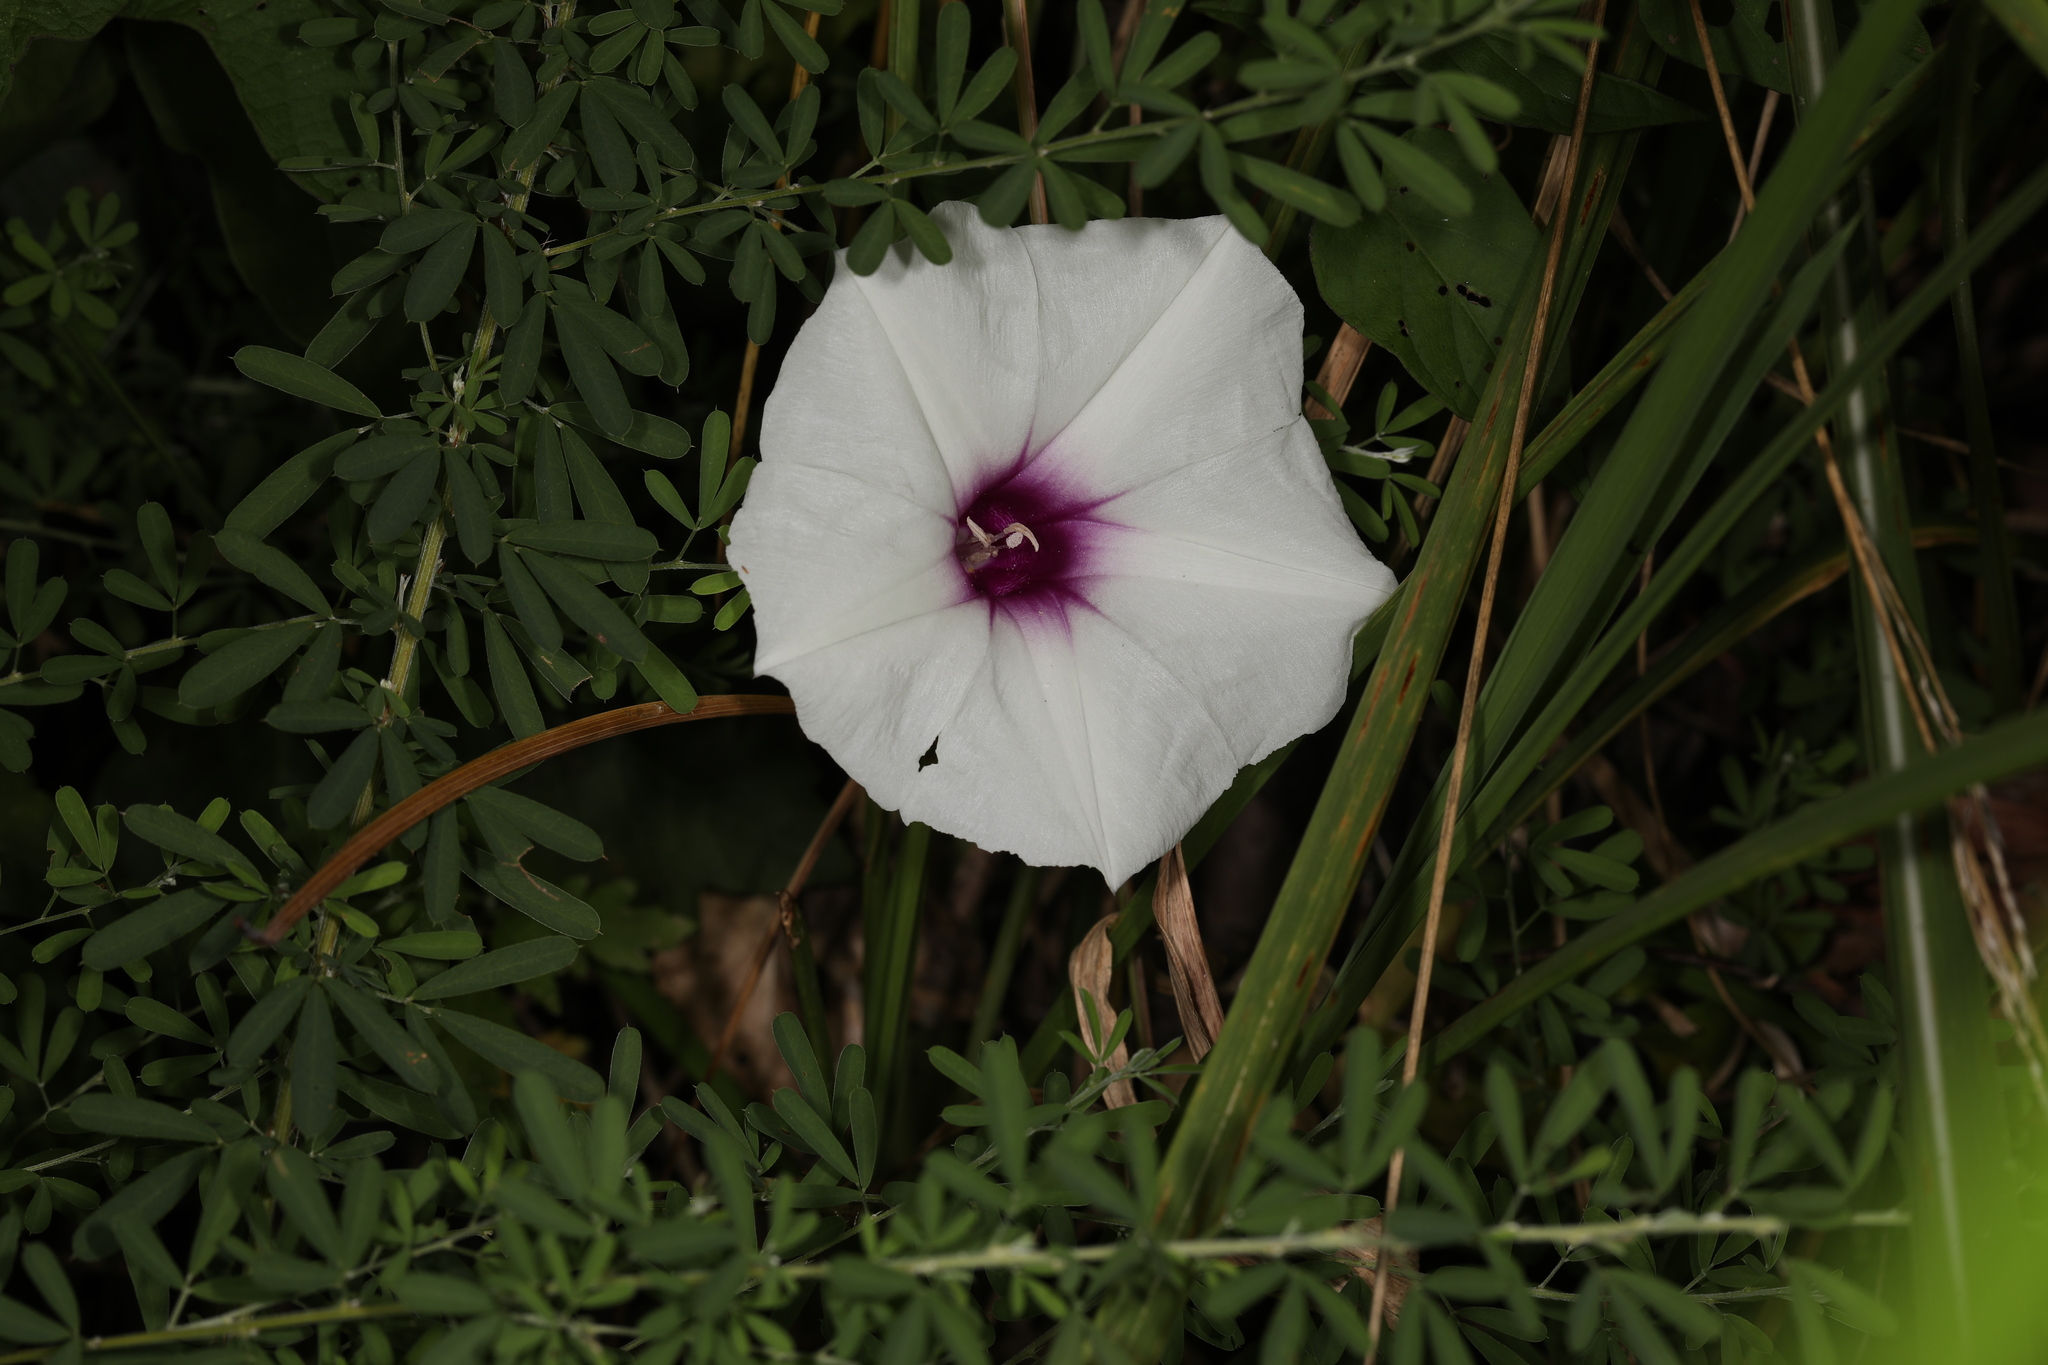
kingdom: Plantae
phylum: Tracheophyta
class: Magnoliopsida
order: Solanales
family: Convolvulaceae
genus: Ipomoea
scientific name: Ipomoea pandurata
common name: Man-of-the-earth
